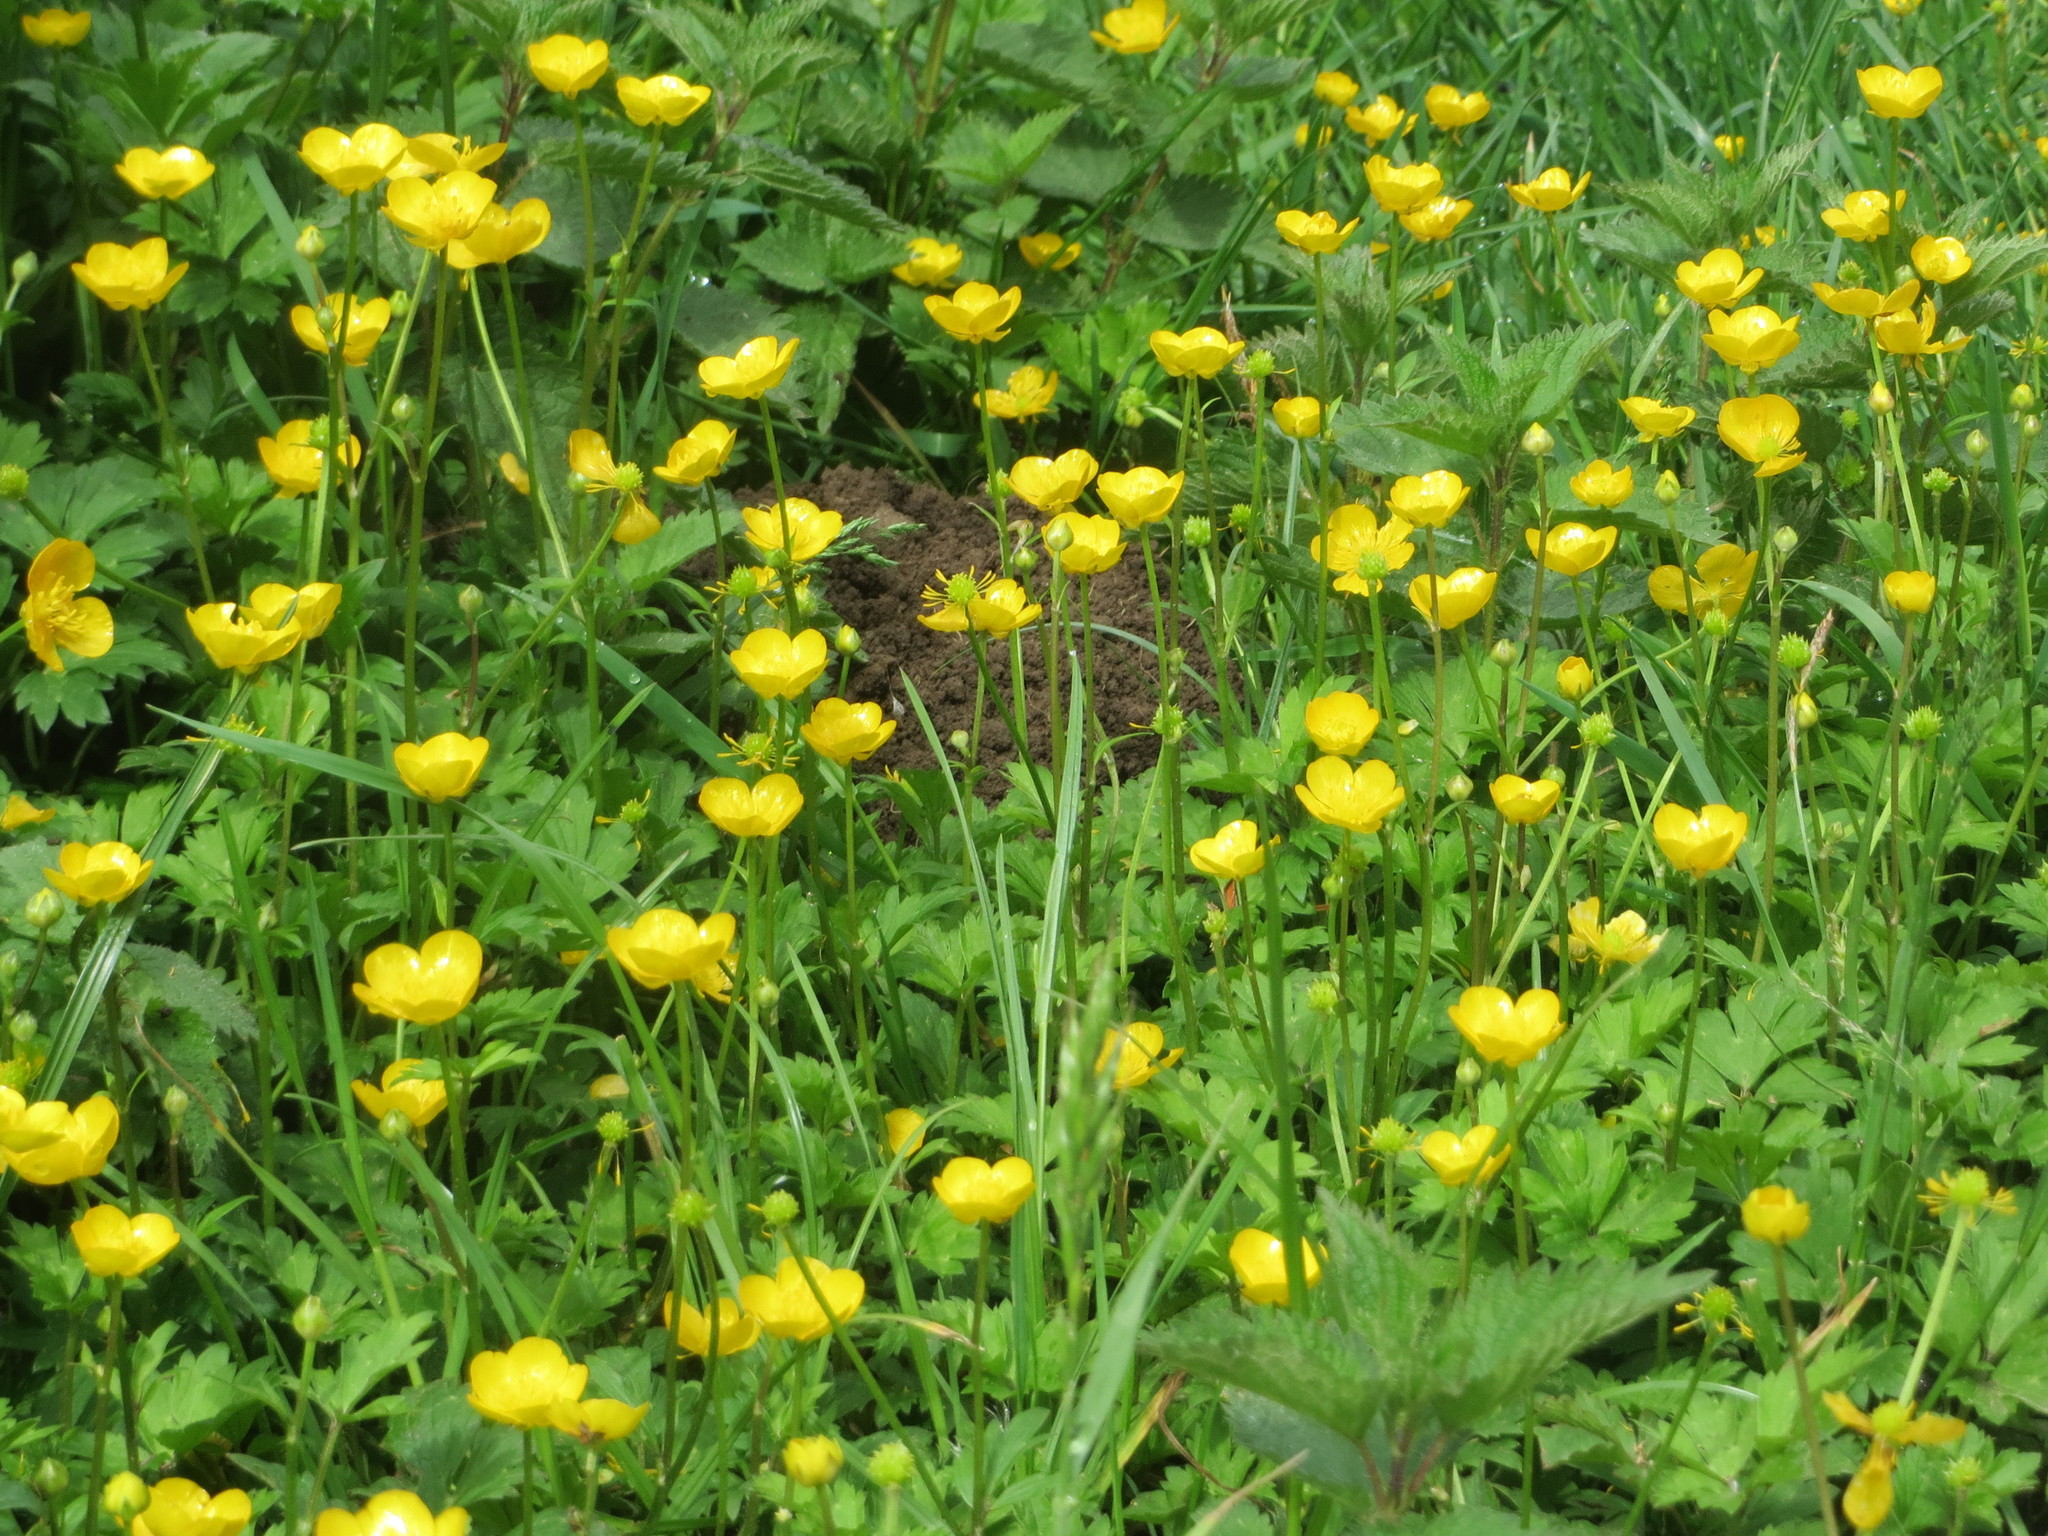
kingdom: Plantae
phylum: Tracheophyta
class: Magnoliopsida
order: Ranunculales
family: Ranunculaceae
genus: Ranunculus
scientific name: Ranunculus repens
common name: Creeping buttercup
